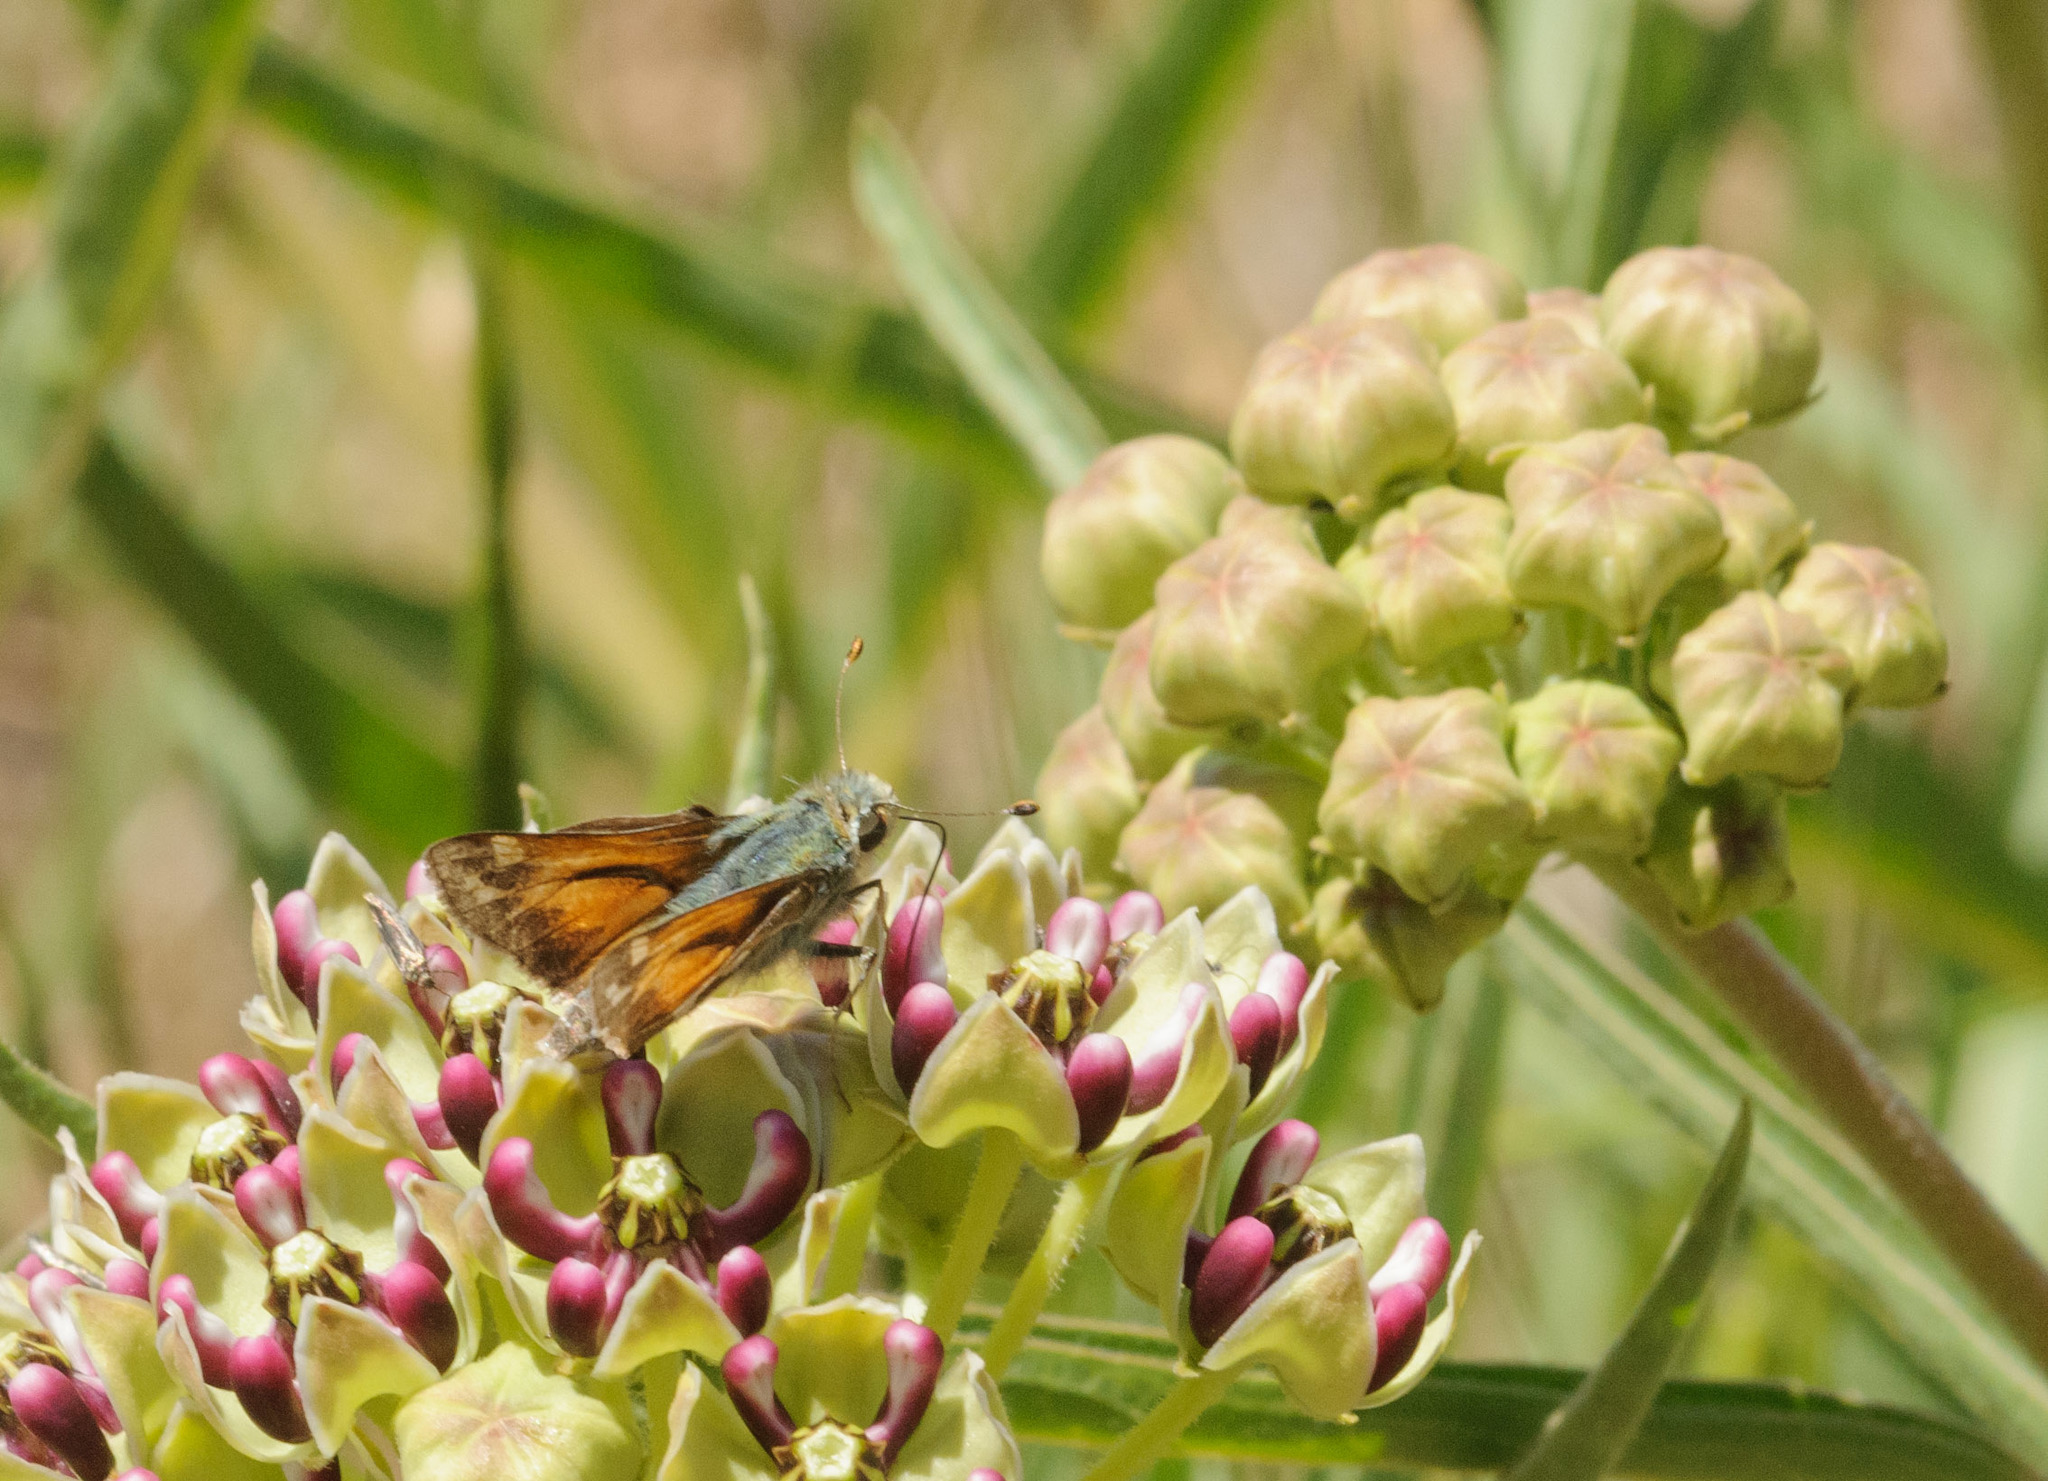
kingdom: Animalia
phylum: Arthropoda
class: Insecta
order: Lepidoptera
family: Hesperiidae
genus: Hesperia
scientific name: Hesperia juba
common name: Juba skipper
